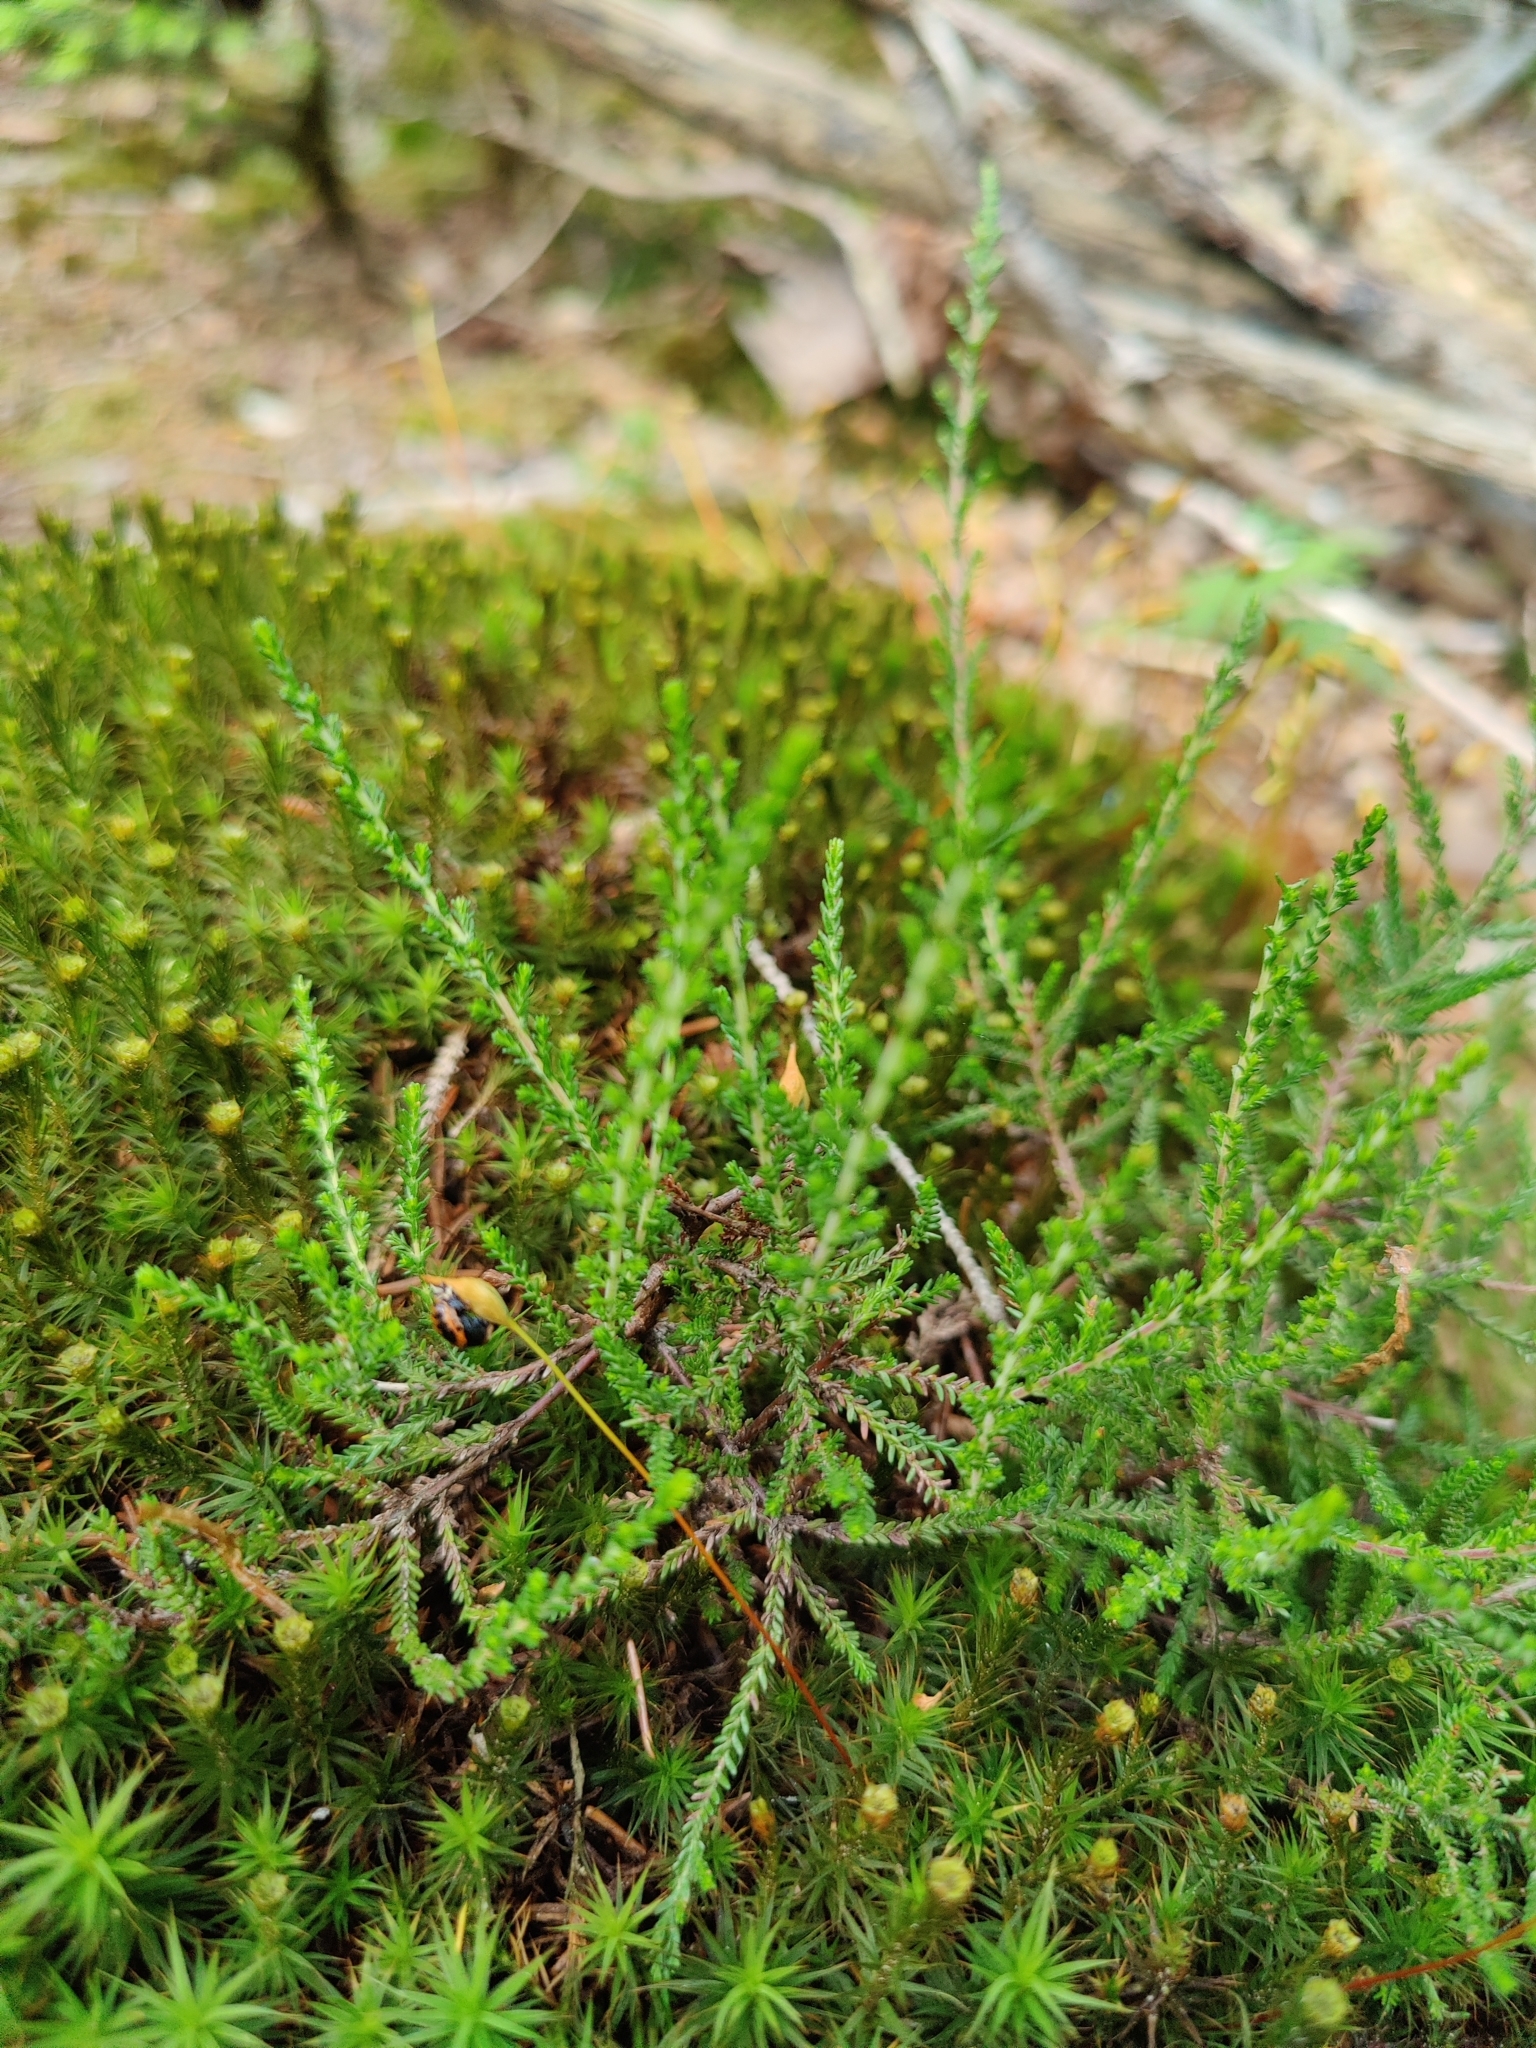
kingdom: Plantae
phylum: Tracheophyta
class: Magnoliopsida
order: Ericales
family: Ericaceae
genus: Calluna
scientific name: Calluna vulgaris
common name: Heather
